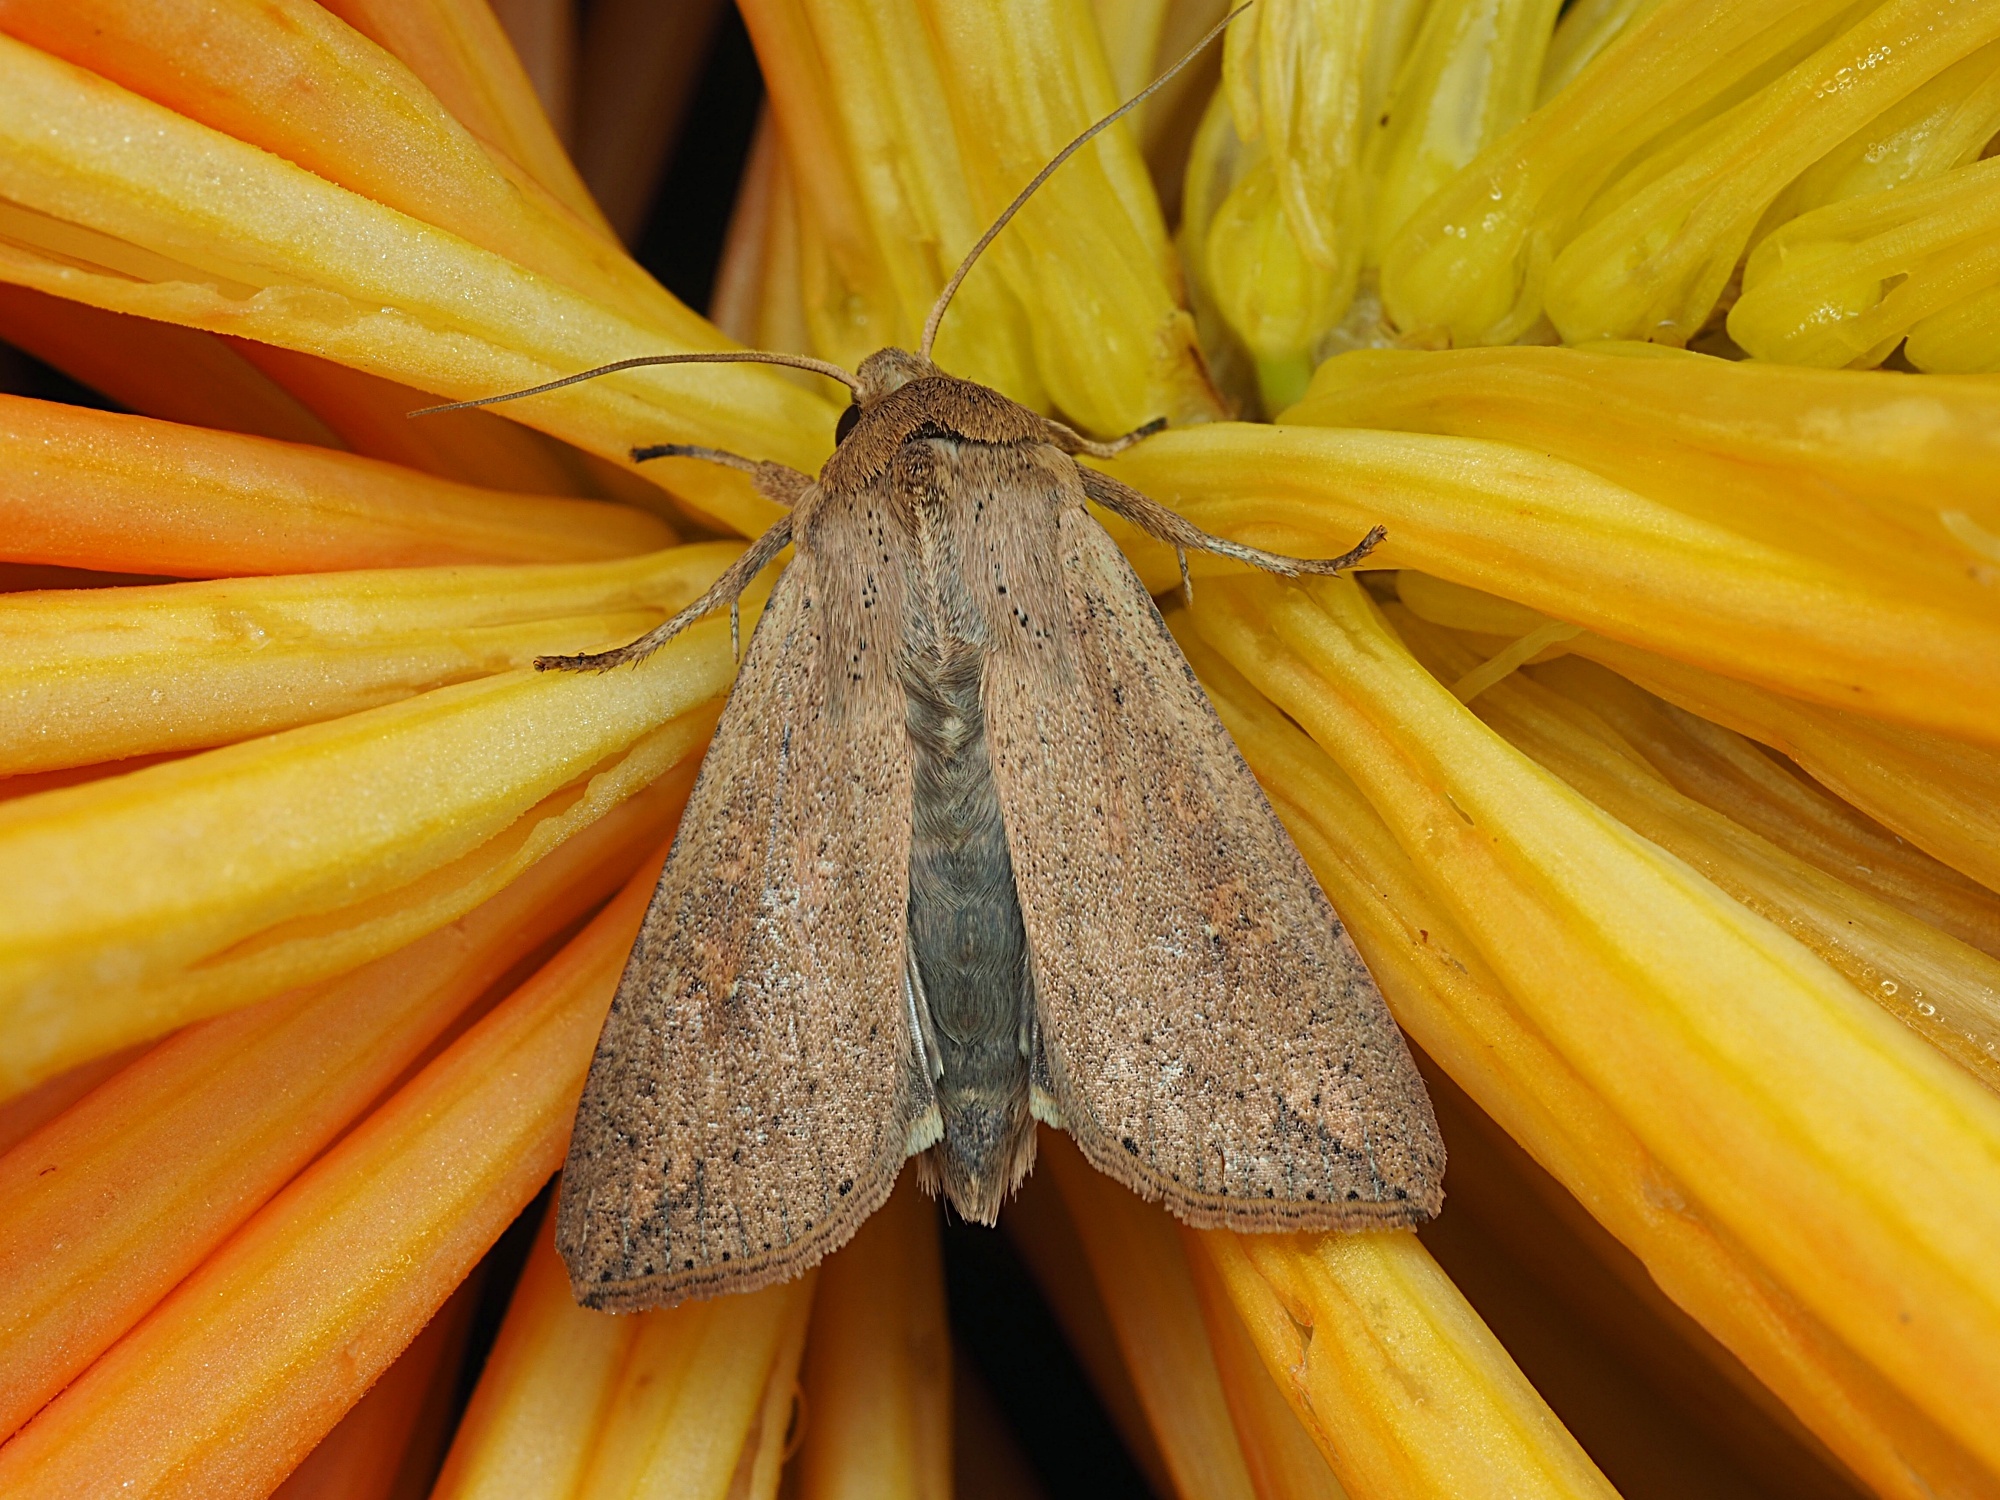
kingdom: Animalia
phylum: Arthropoda
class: Insecta
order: Lepidoptera
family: Noctuidae
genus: Mythimna
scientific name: Mythimna separata
